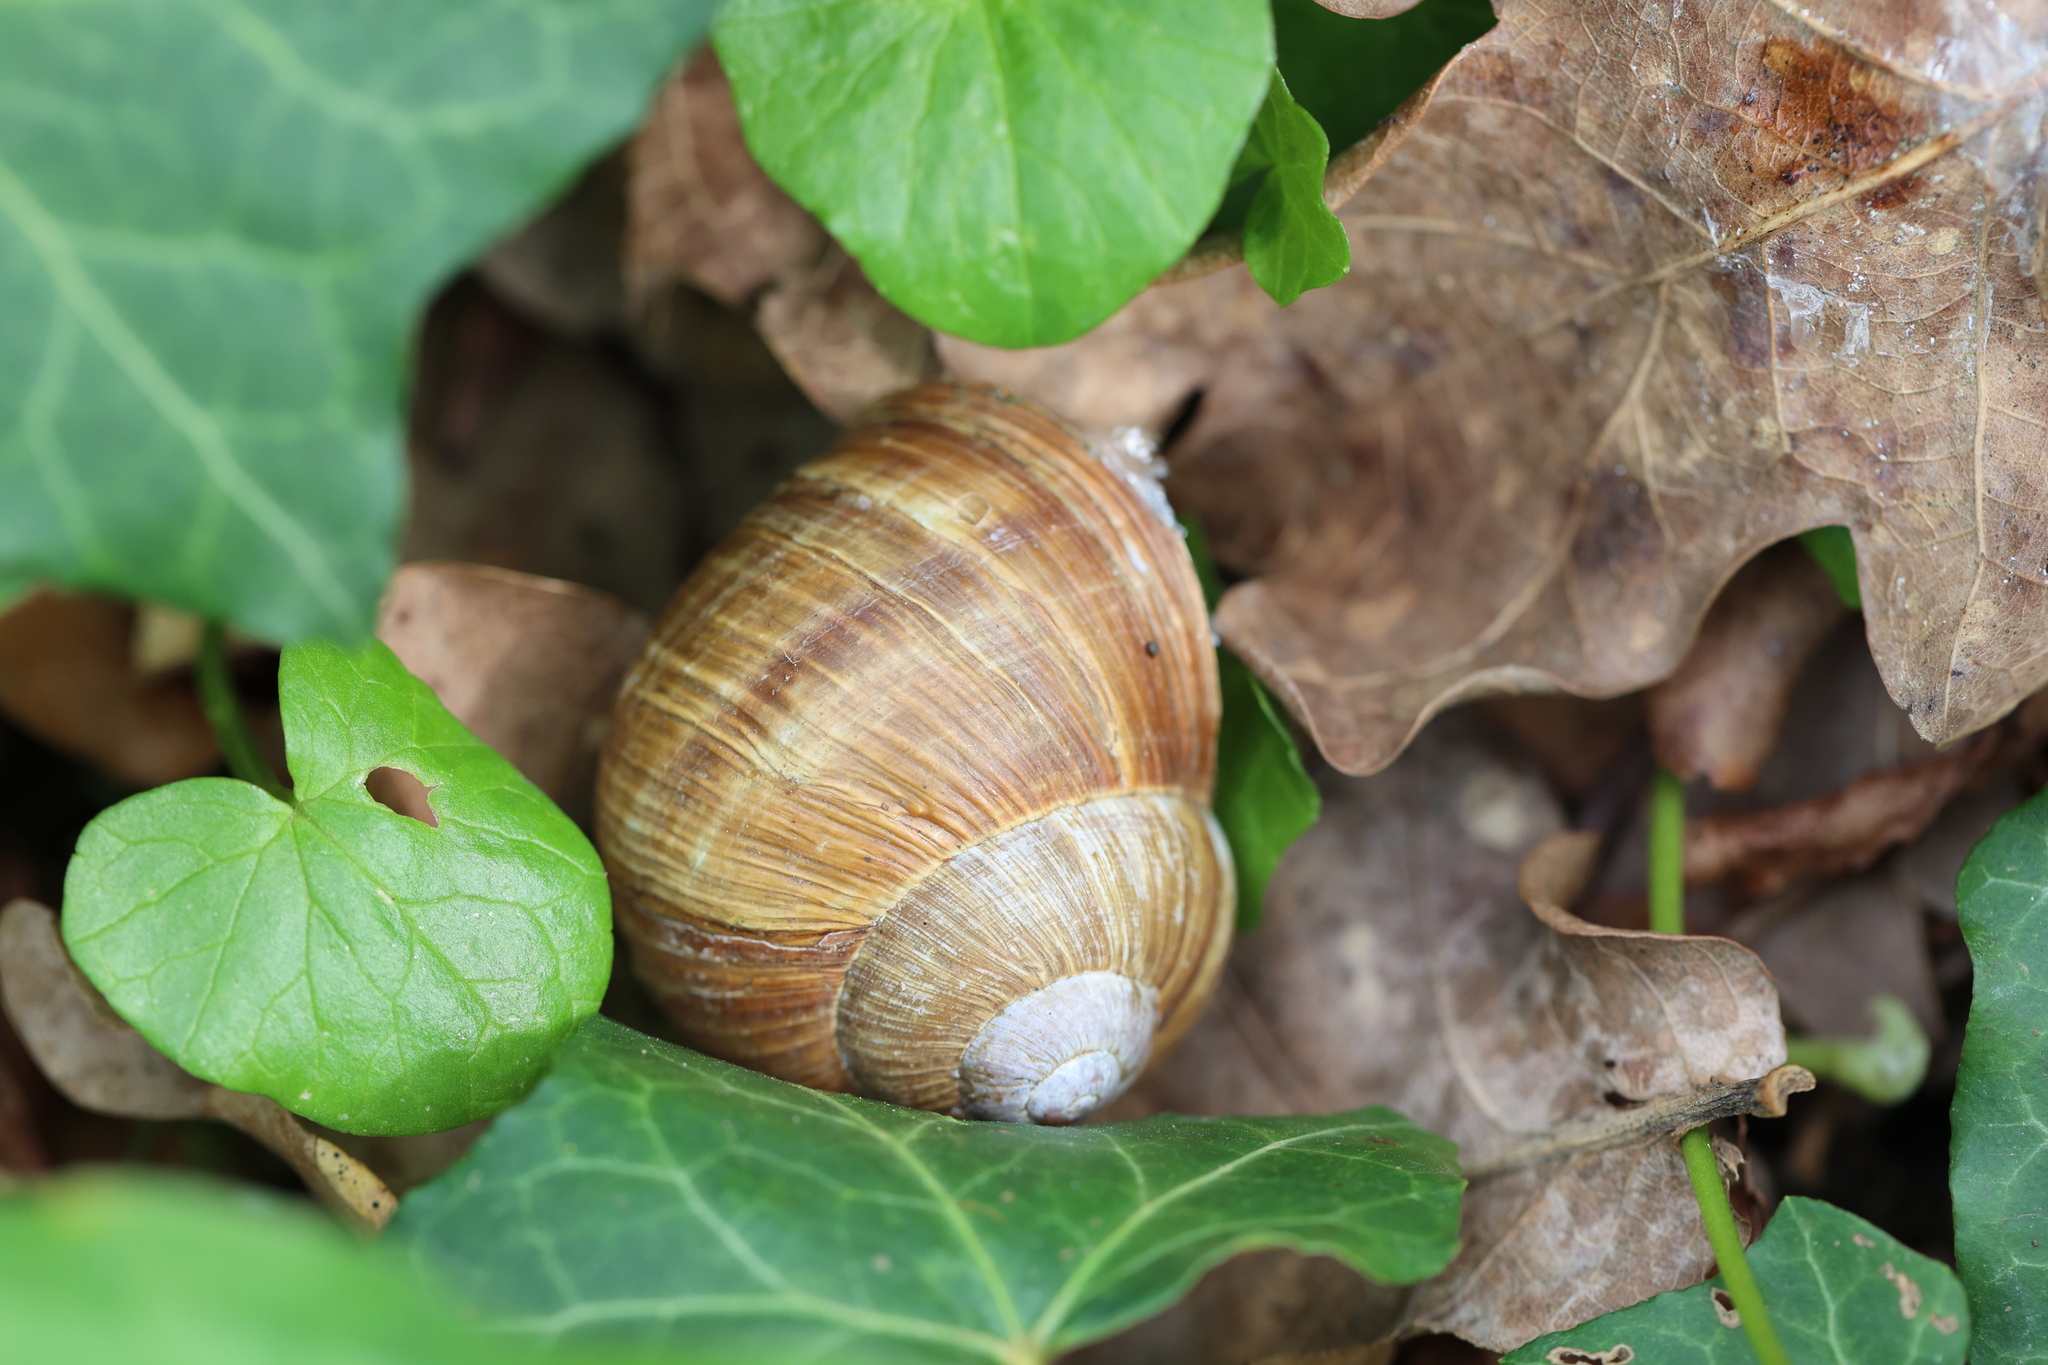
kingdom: Animalia
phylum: Mollusca
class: Gastropoda
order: Stylommatophora
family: Helicidae
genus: Helix
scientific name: Helix pomatia
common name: Roman snail
